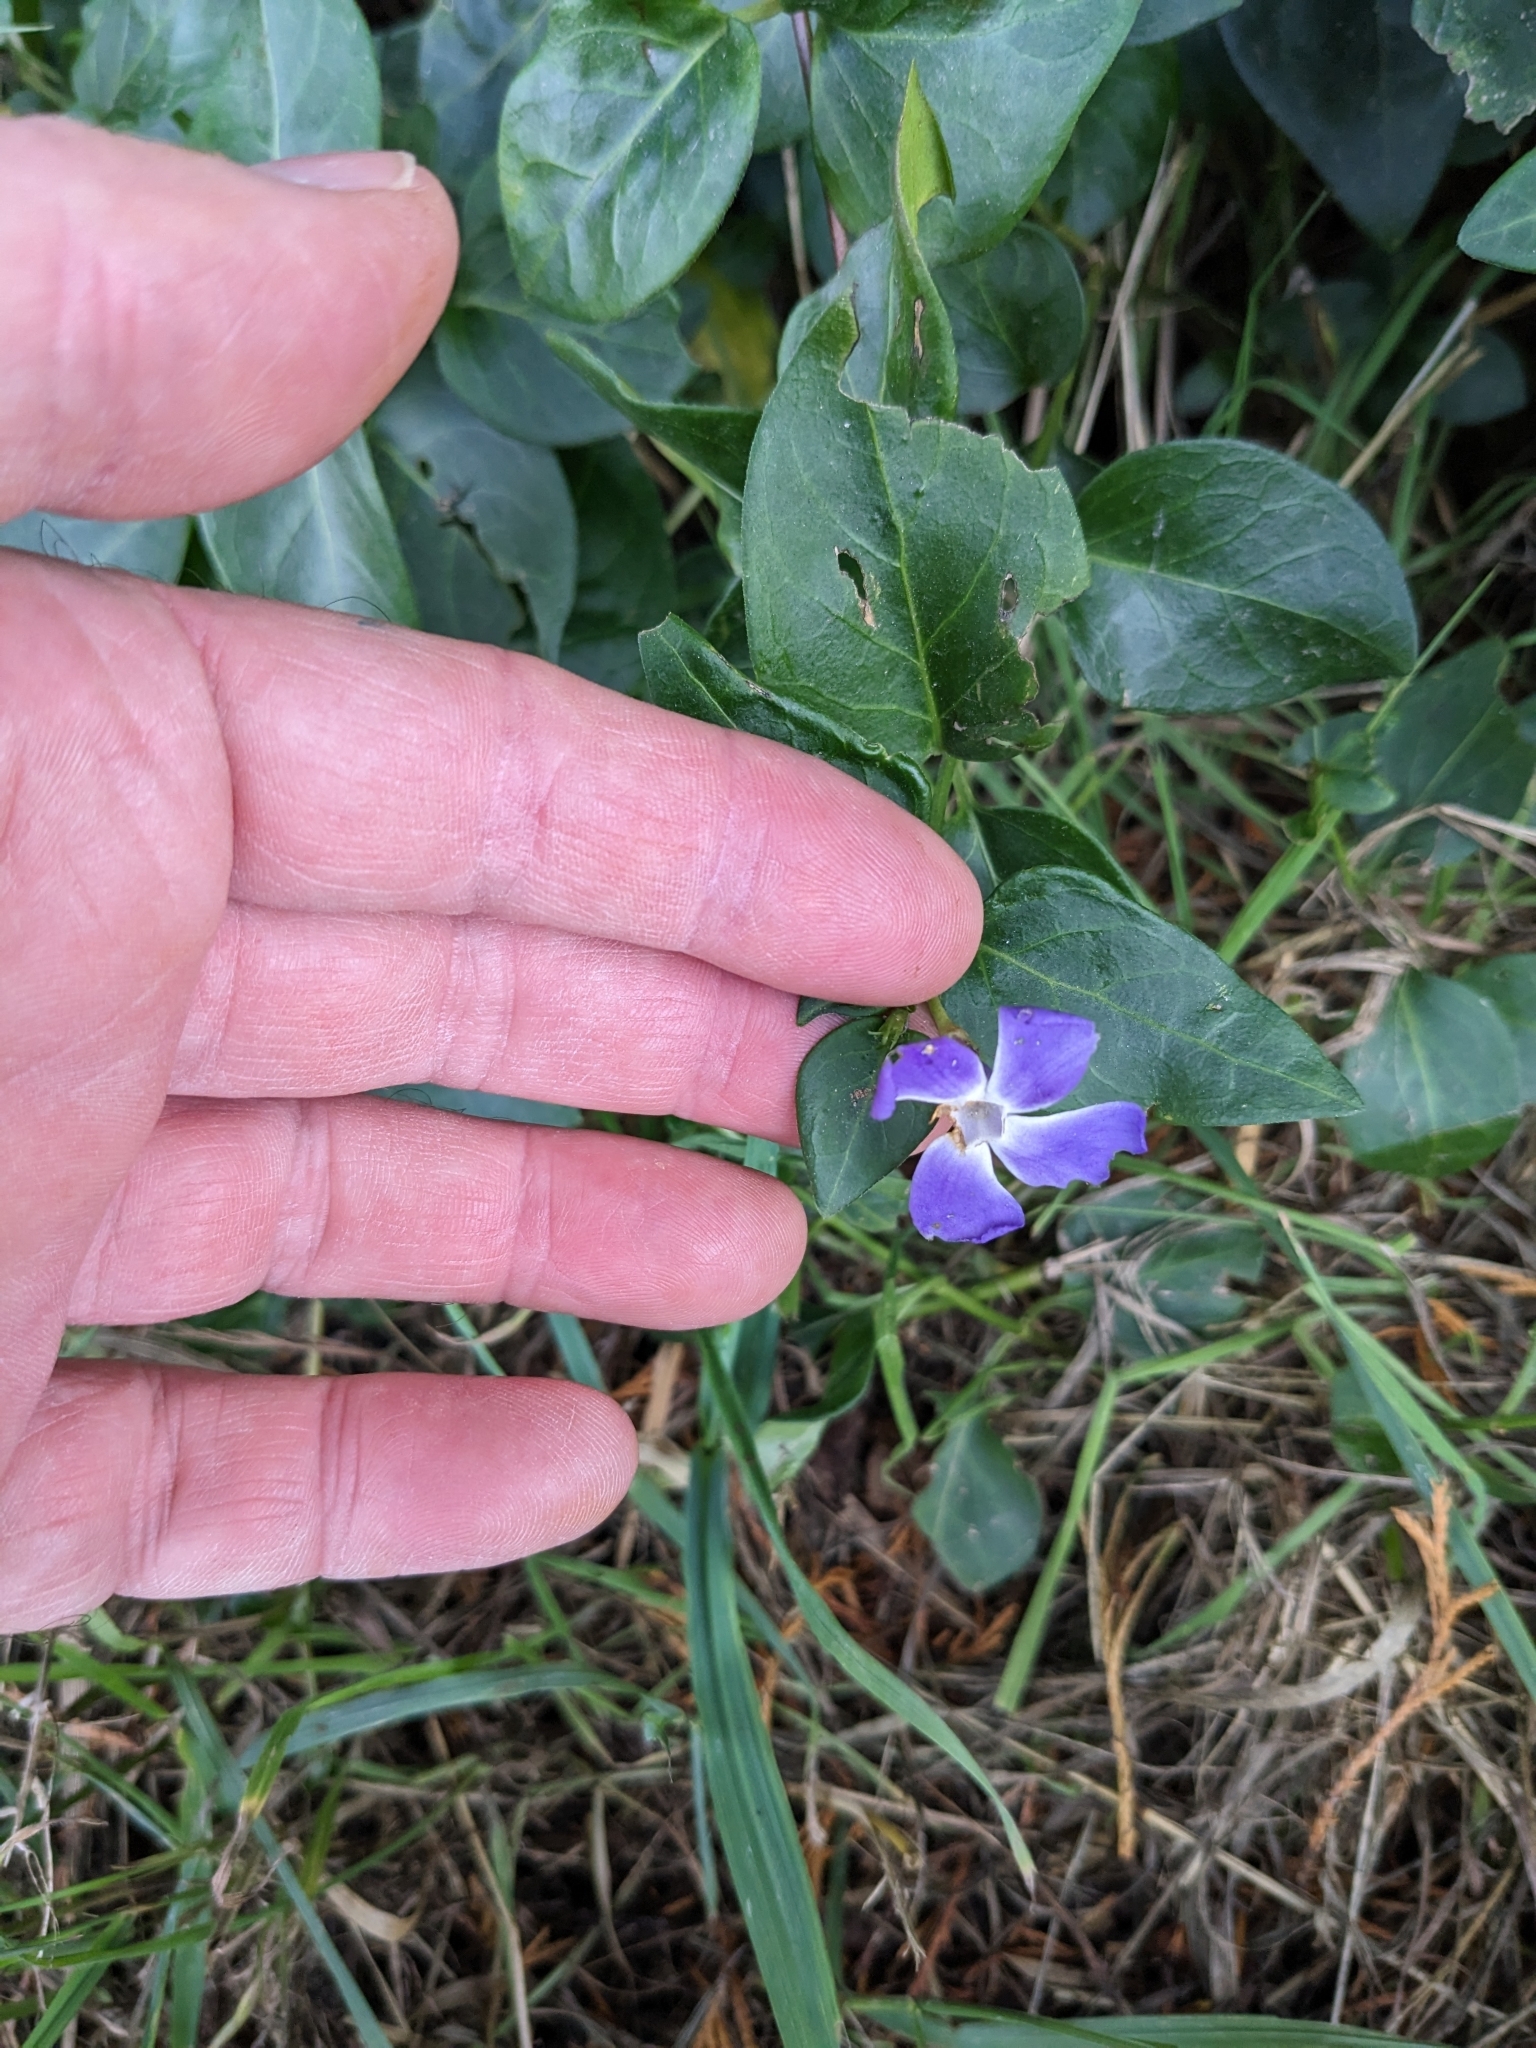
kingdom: Plantae
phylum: Tracheophyta
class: Magnoliopsida
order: Gentianales
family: Apocynaceae
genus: Vinca
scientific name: Vinca major
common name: Greater periwinkle
